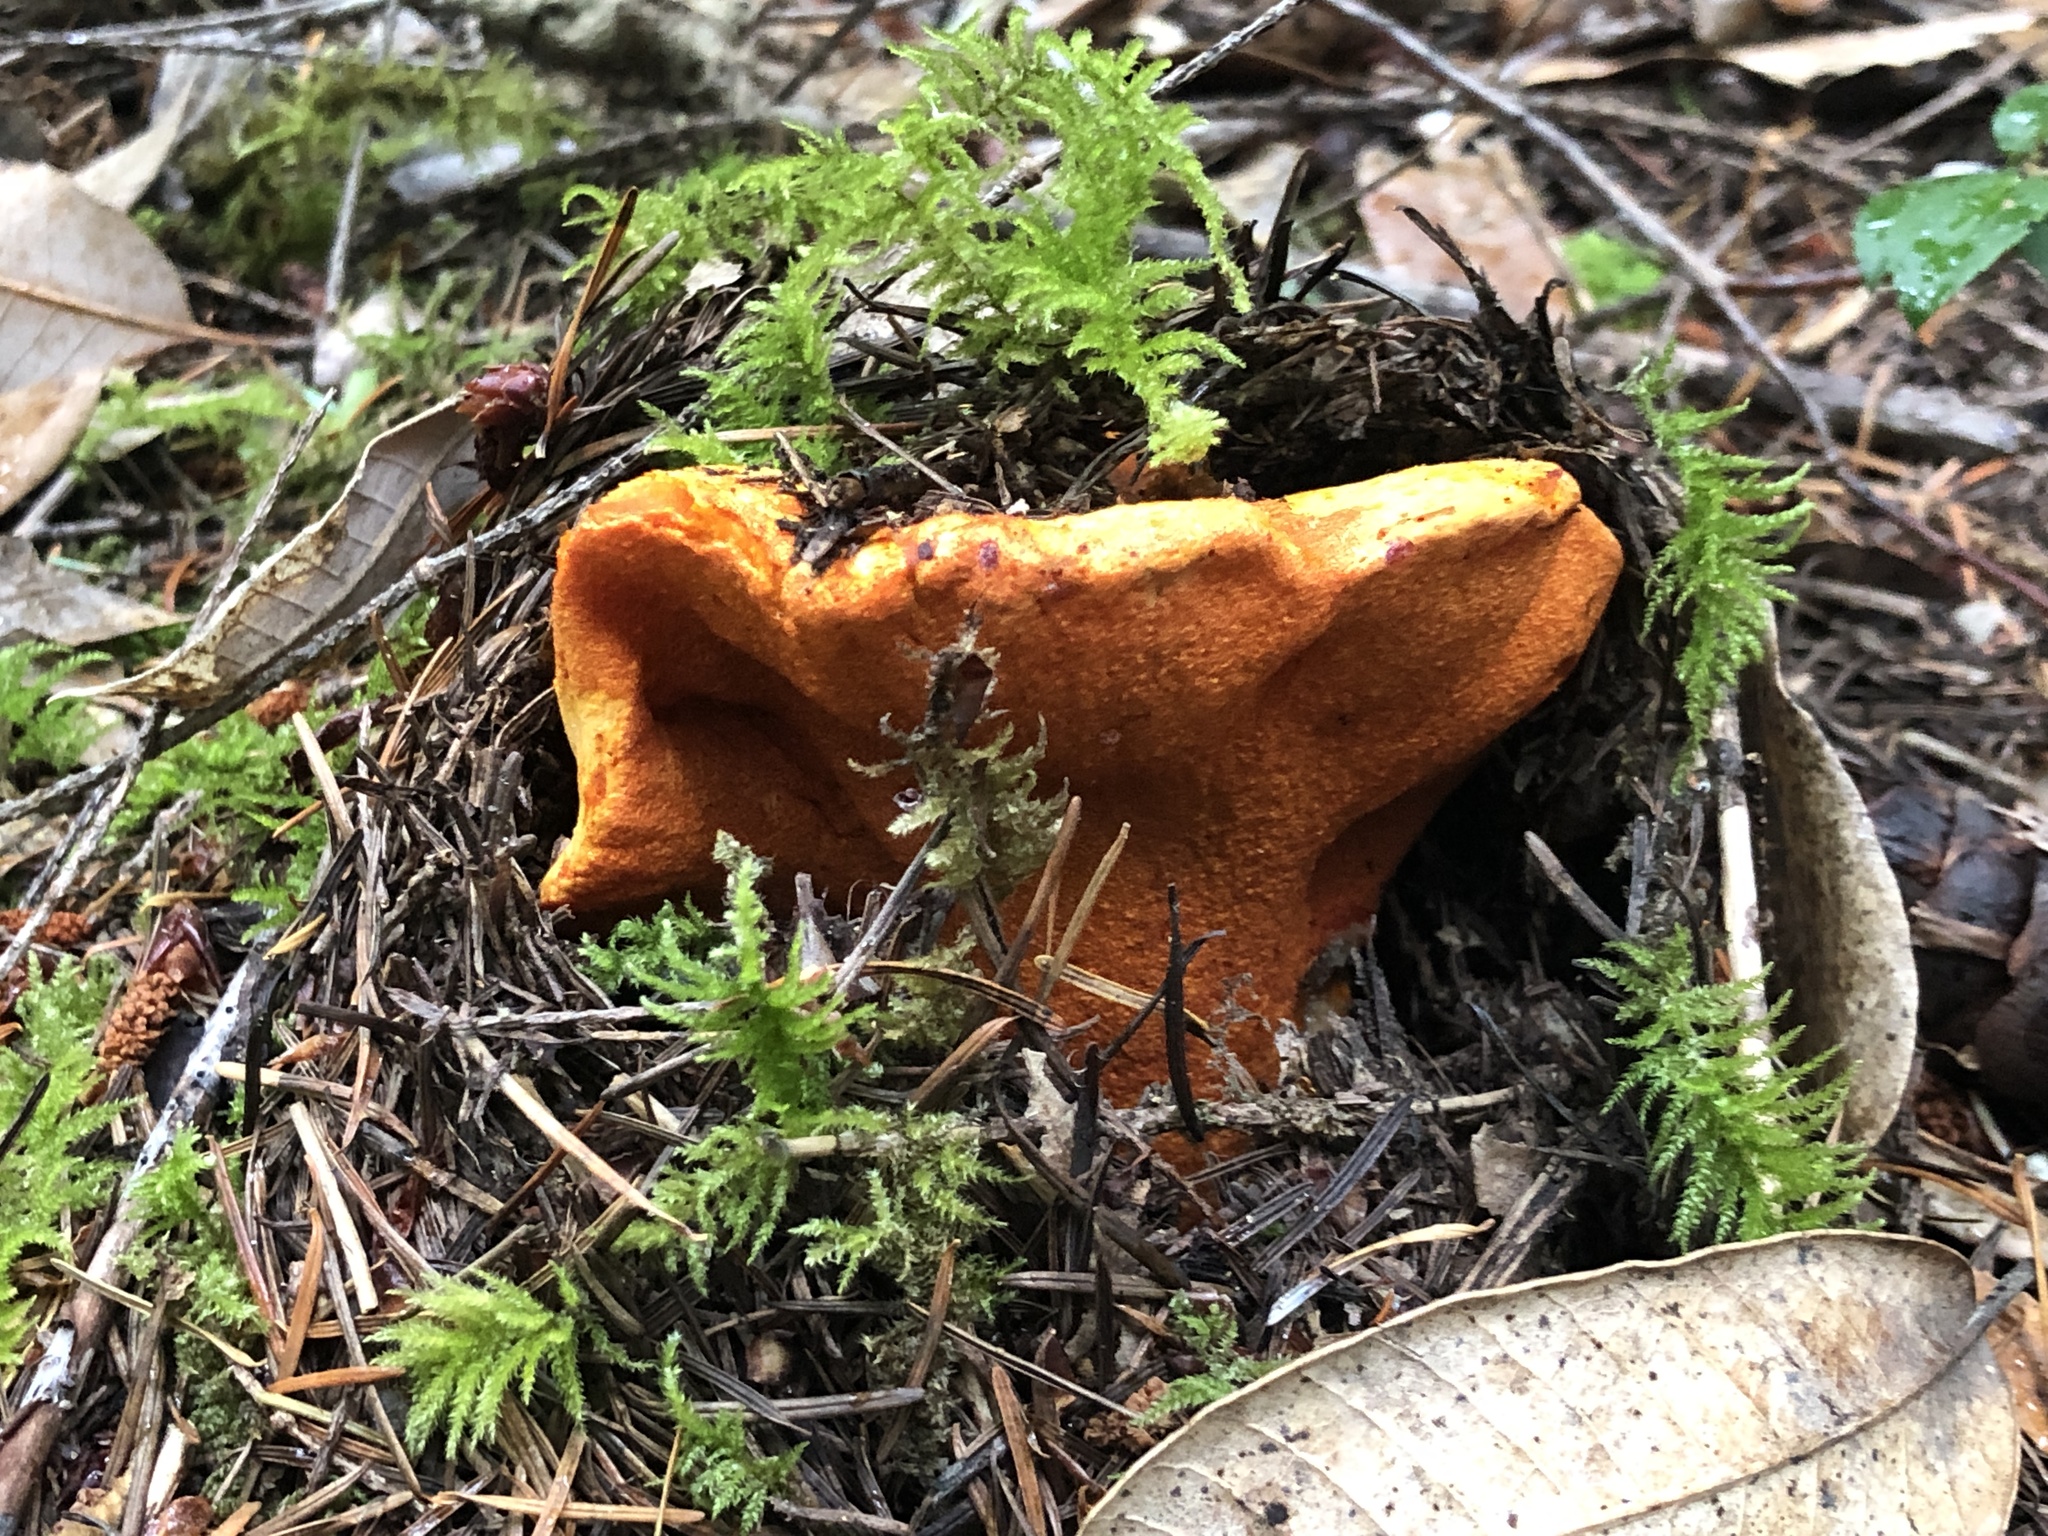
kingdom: Fungi
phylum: Ascomycota
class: Sordariomycetes
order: Hypocreales
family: Hypocreaceae
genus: Hypomyces
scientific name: Hypomyces lactifluorum
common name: Lobster mushroom
